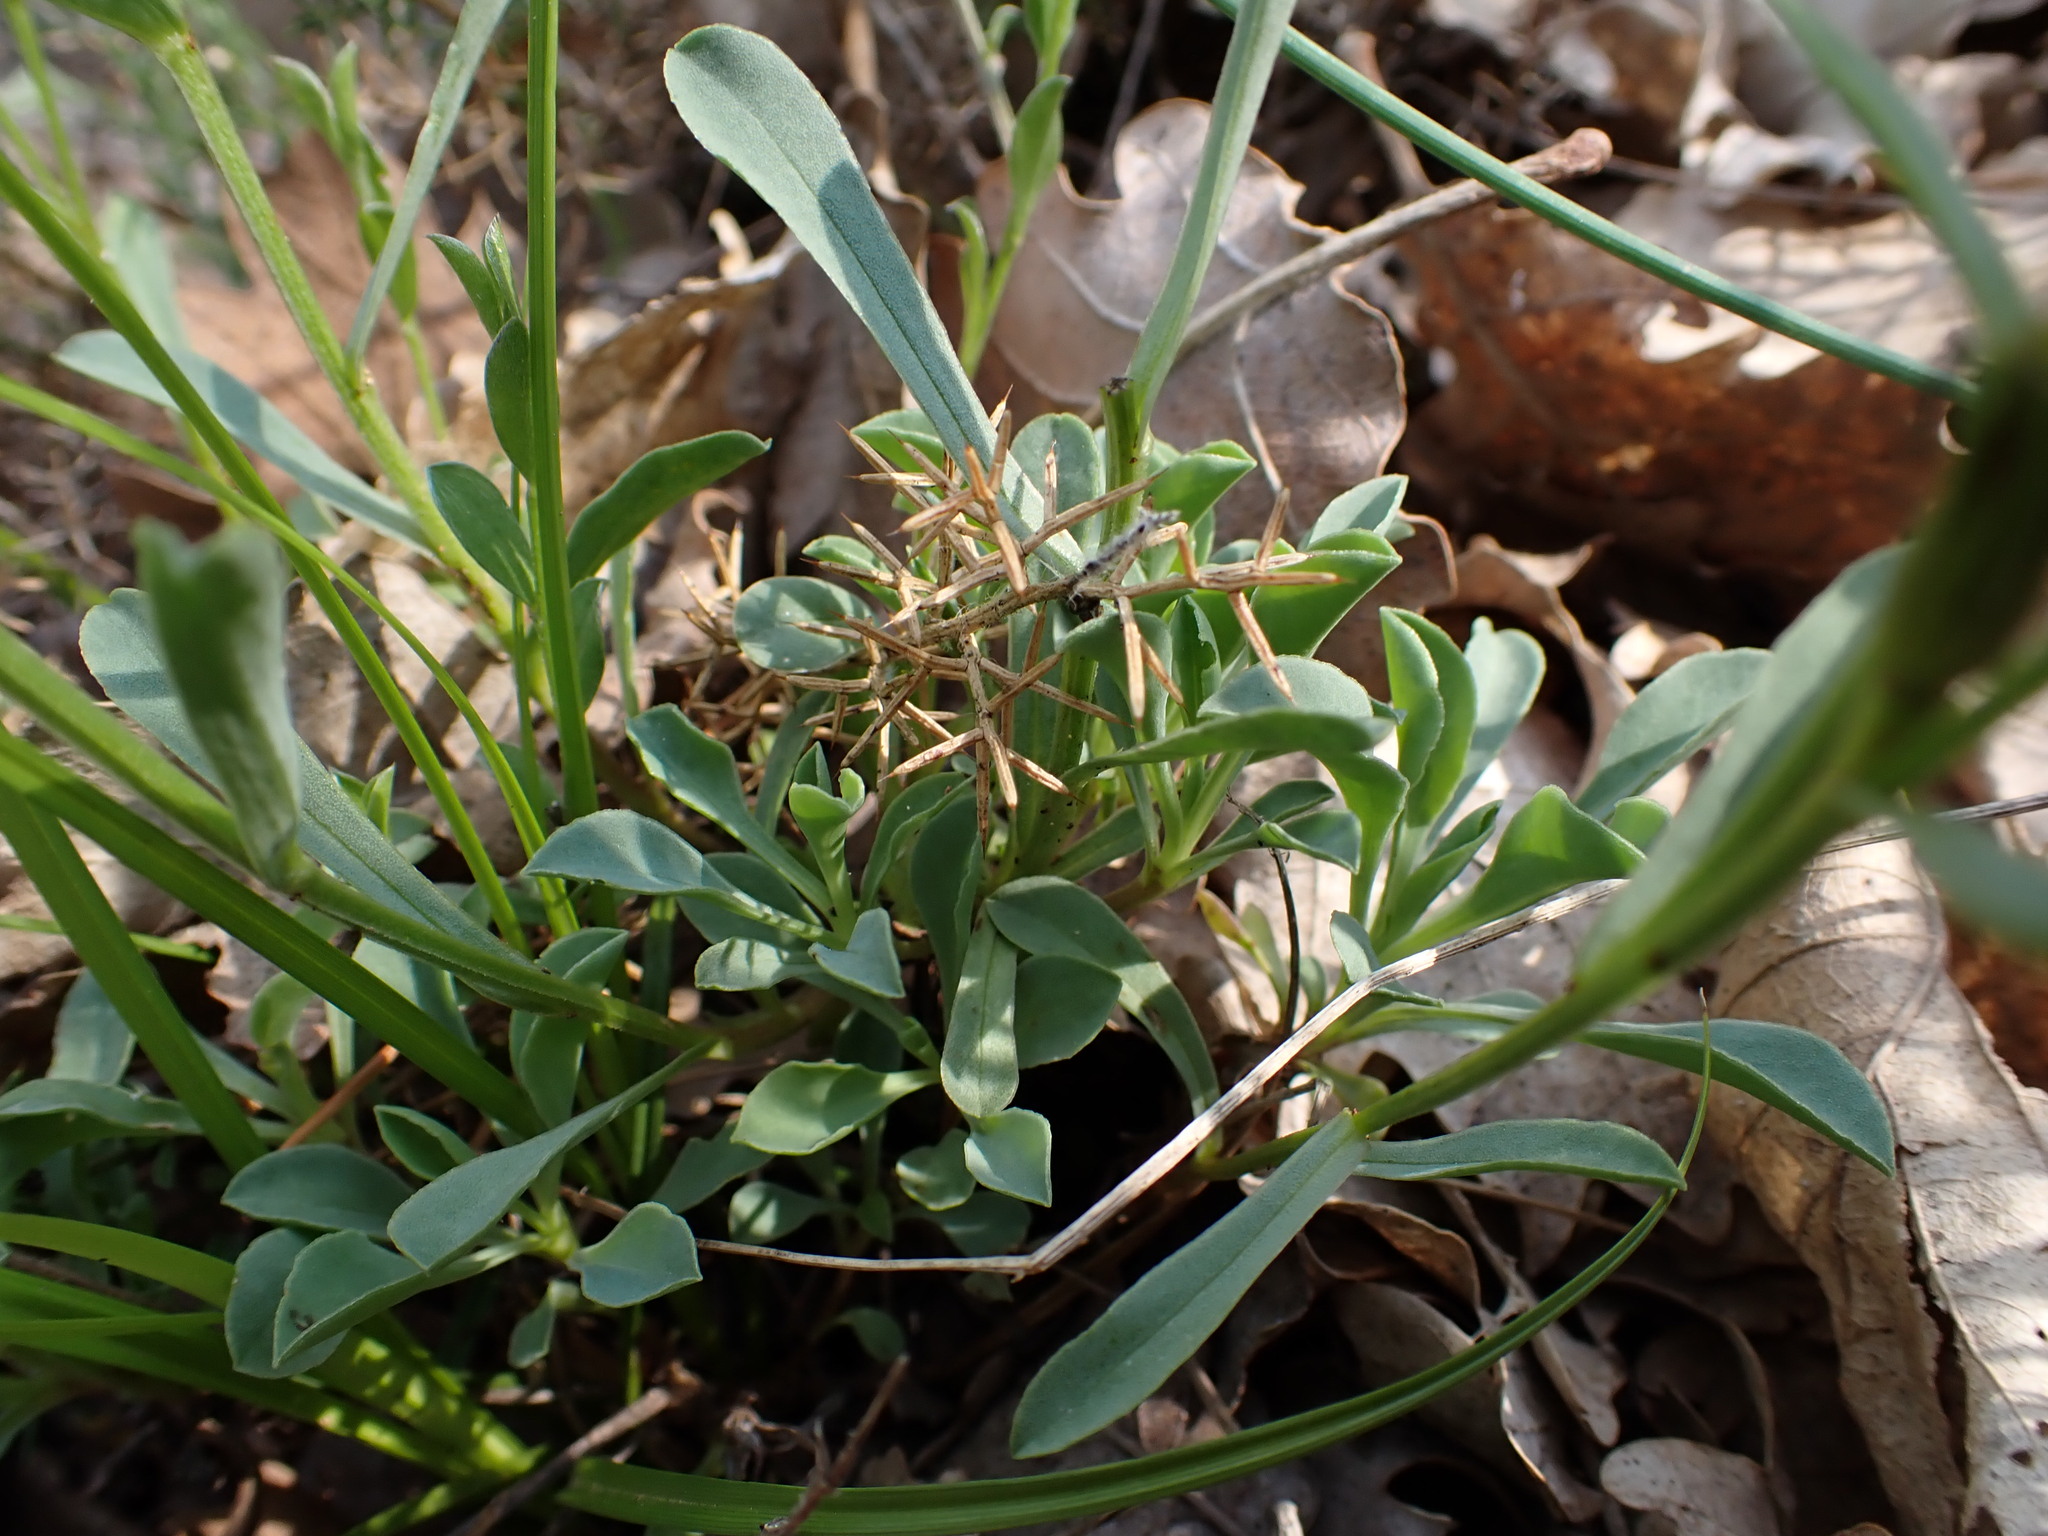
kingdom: Plantae
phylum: Tracheophyta
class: Magnoliopsida
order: Malpighiales
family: Linaceae
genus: Linum
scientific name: Linum campanulatum
